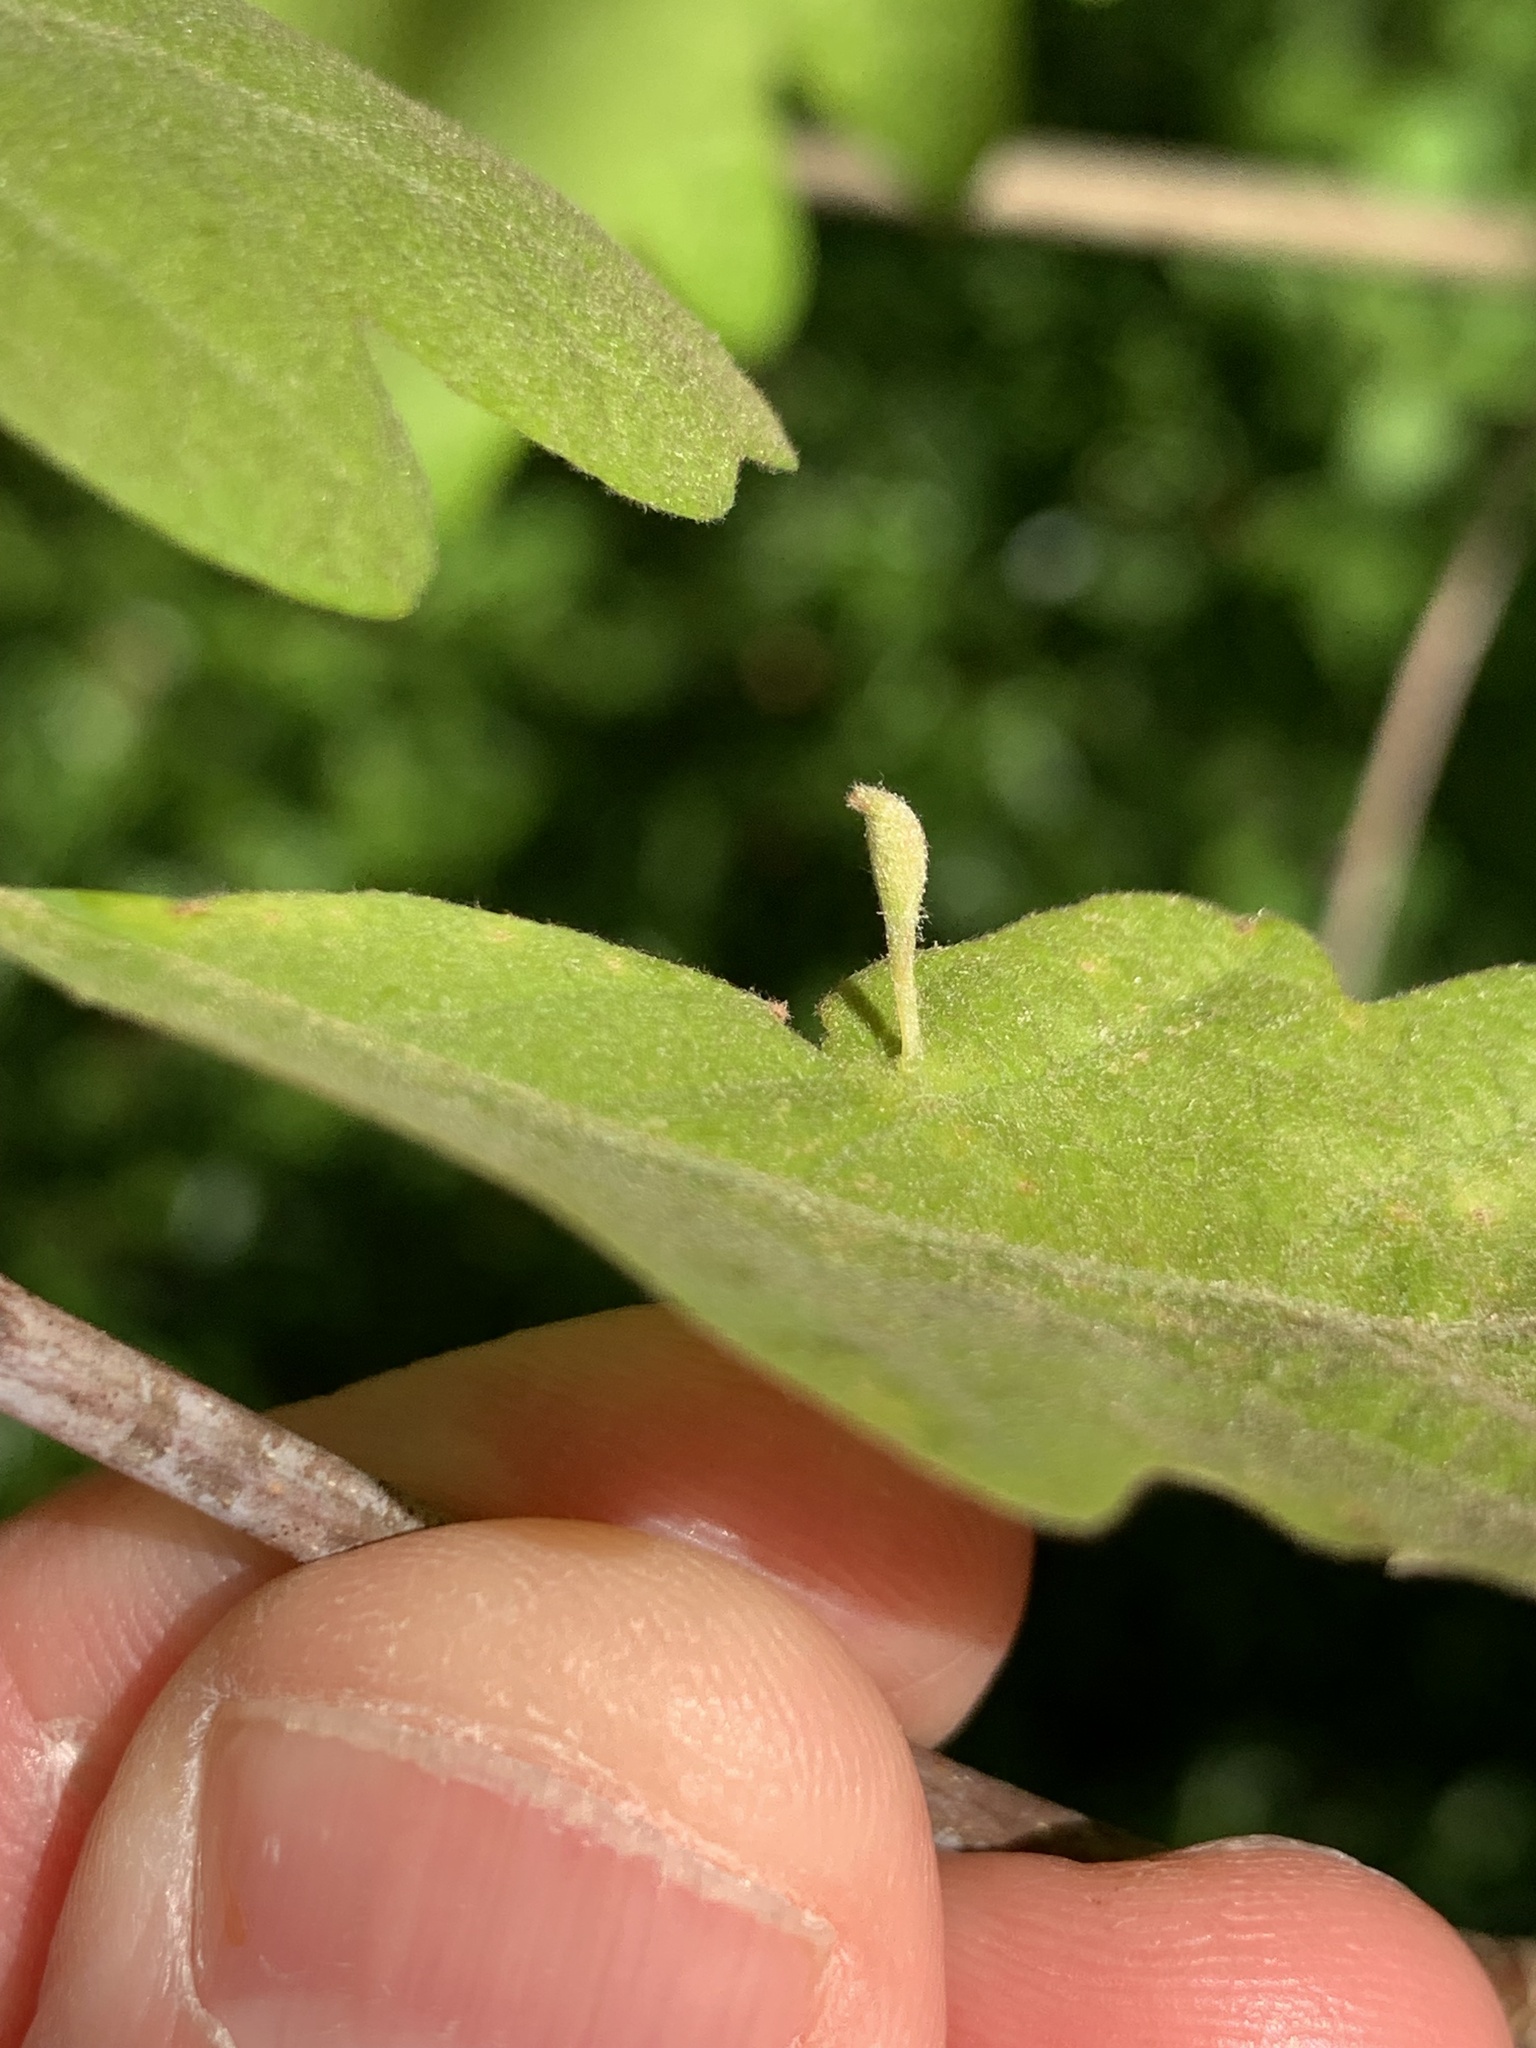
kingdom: Animalia
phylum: Arthropoda
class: Insecta
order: Hymenoptera
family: Cynipidae
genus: Andricus
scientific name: Andricus
